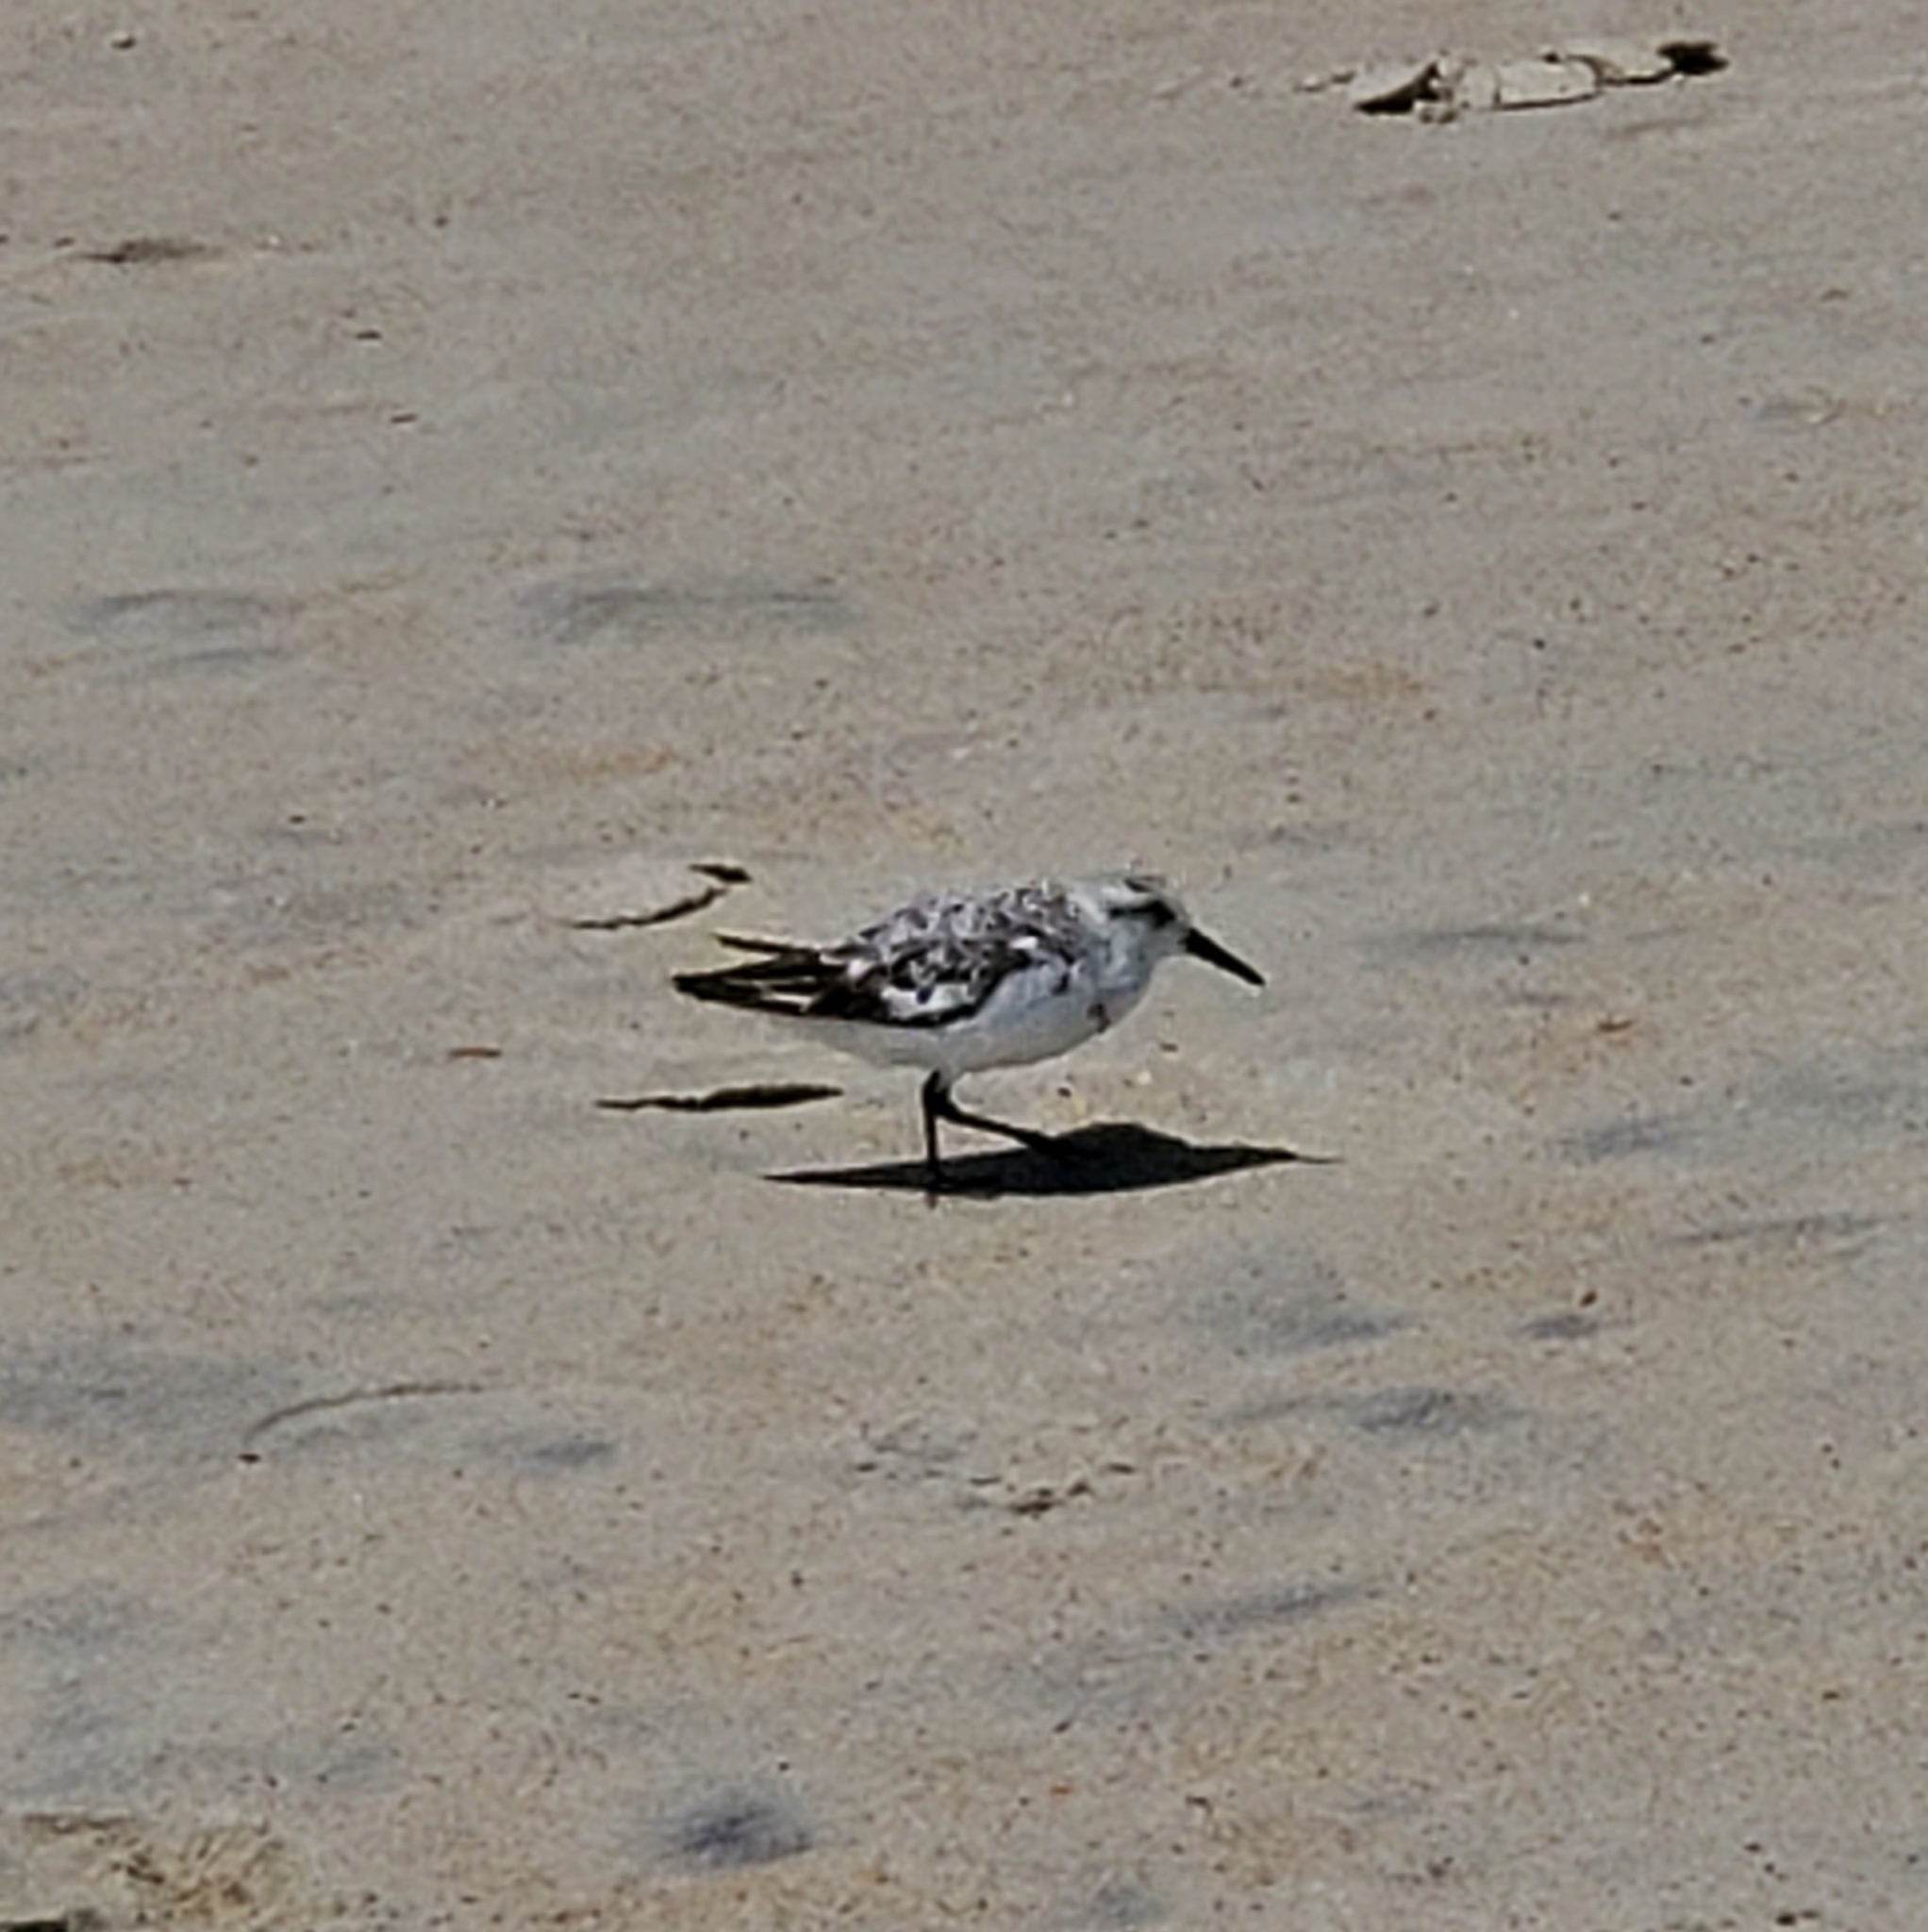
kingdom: Animalia
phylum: Chordata
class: Aves
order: Charadriiformes
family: Scolopacidae
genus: Calidris
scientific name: Calidris alba
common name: Sanderling
